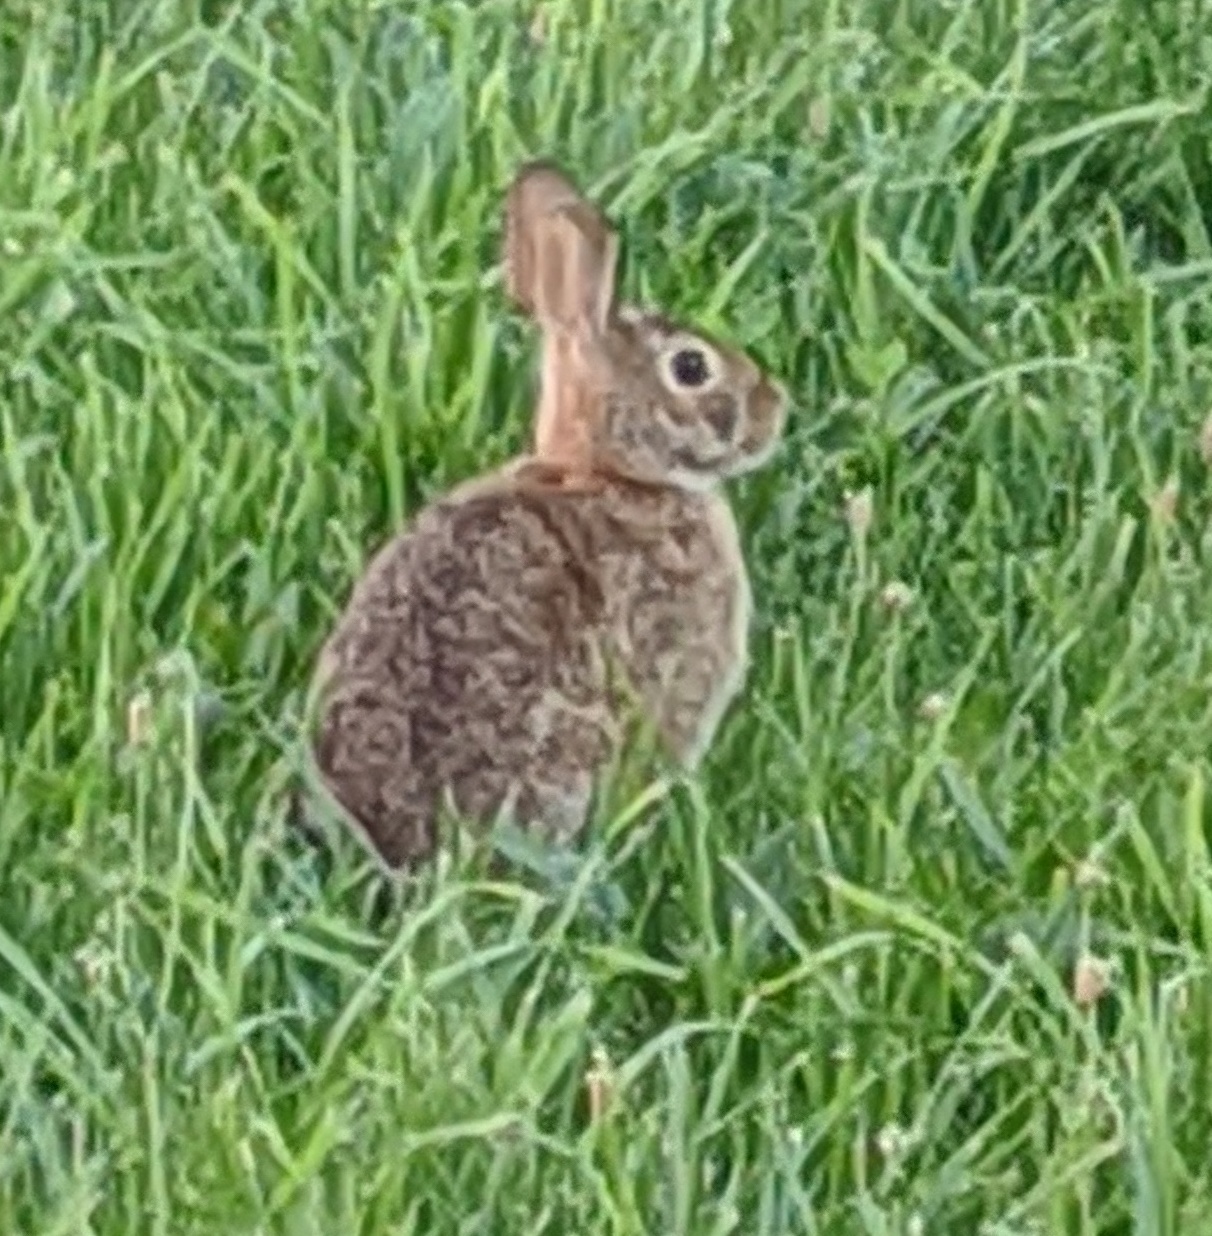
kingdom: Animalia
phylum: Chordata
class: Mammalia
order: Lagomorpha
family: Leporidae
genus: Sylvilagus
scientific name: Sylvilagus floridanus
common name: Eastern cottontail
